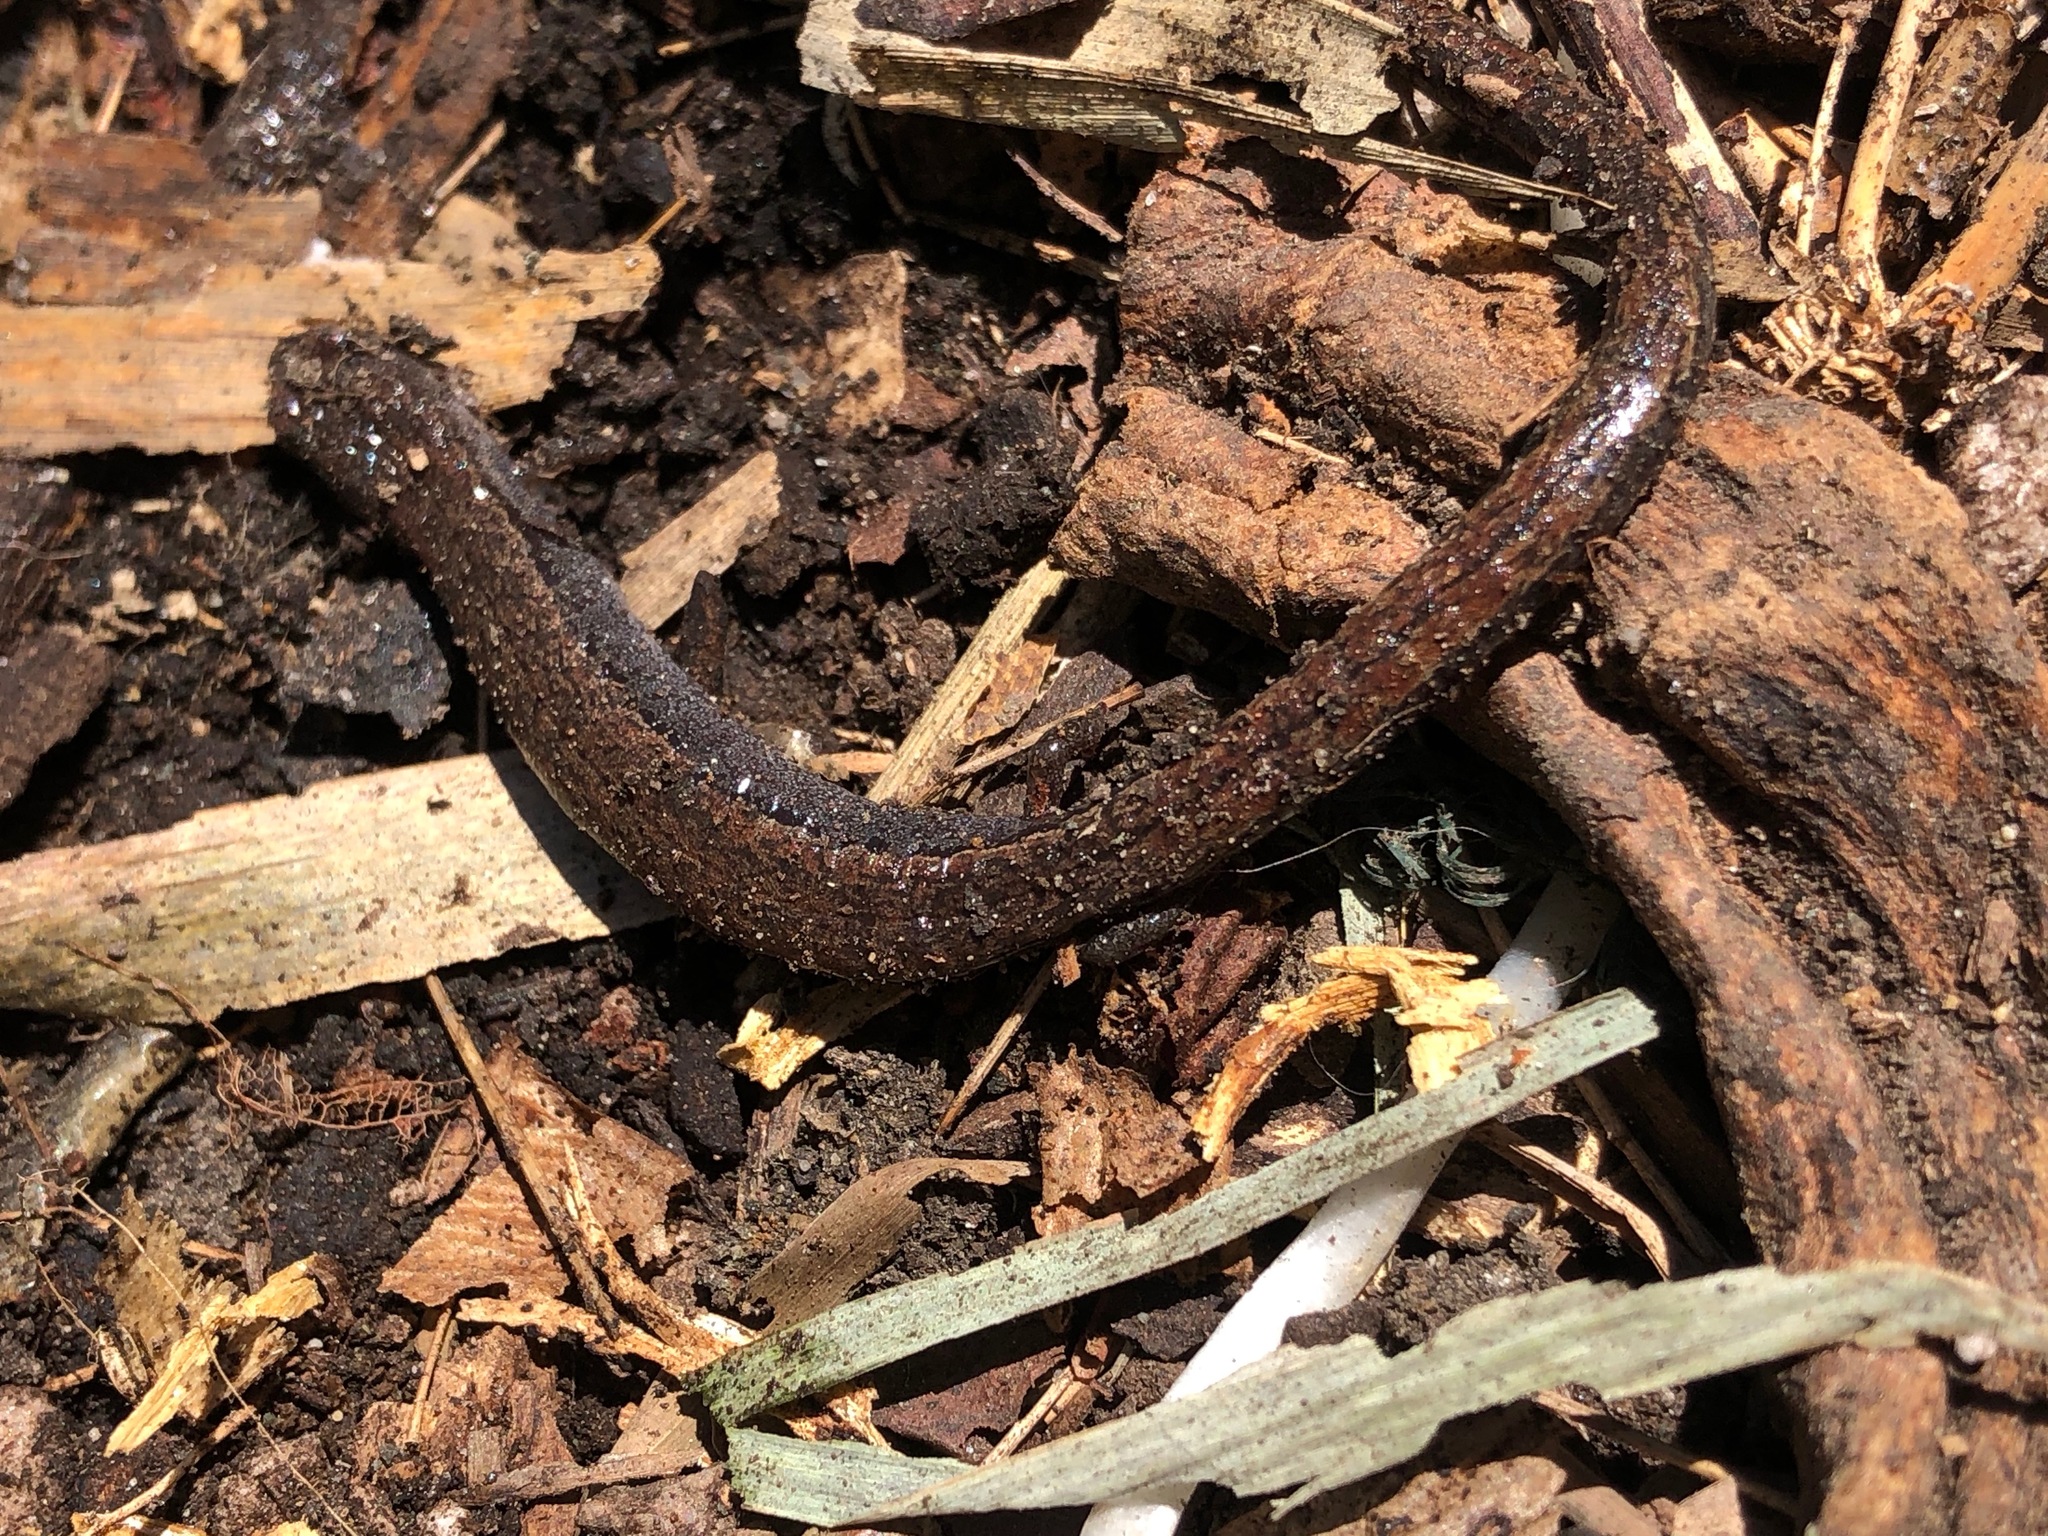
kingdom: Animalia
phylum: Chordata
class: Amphibia
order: Caudata
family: Plethodontidae
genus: Batrachoseps
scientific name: Batrachoseps attenuatus
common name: California slender salamander
